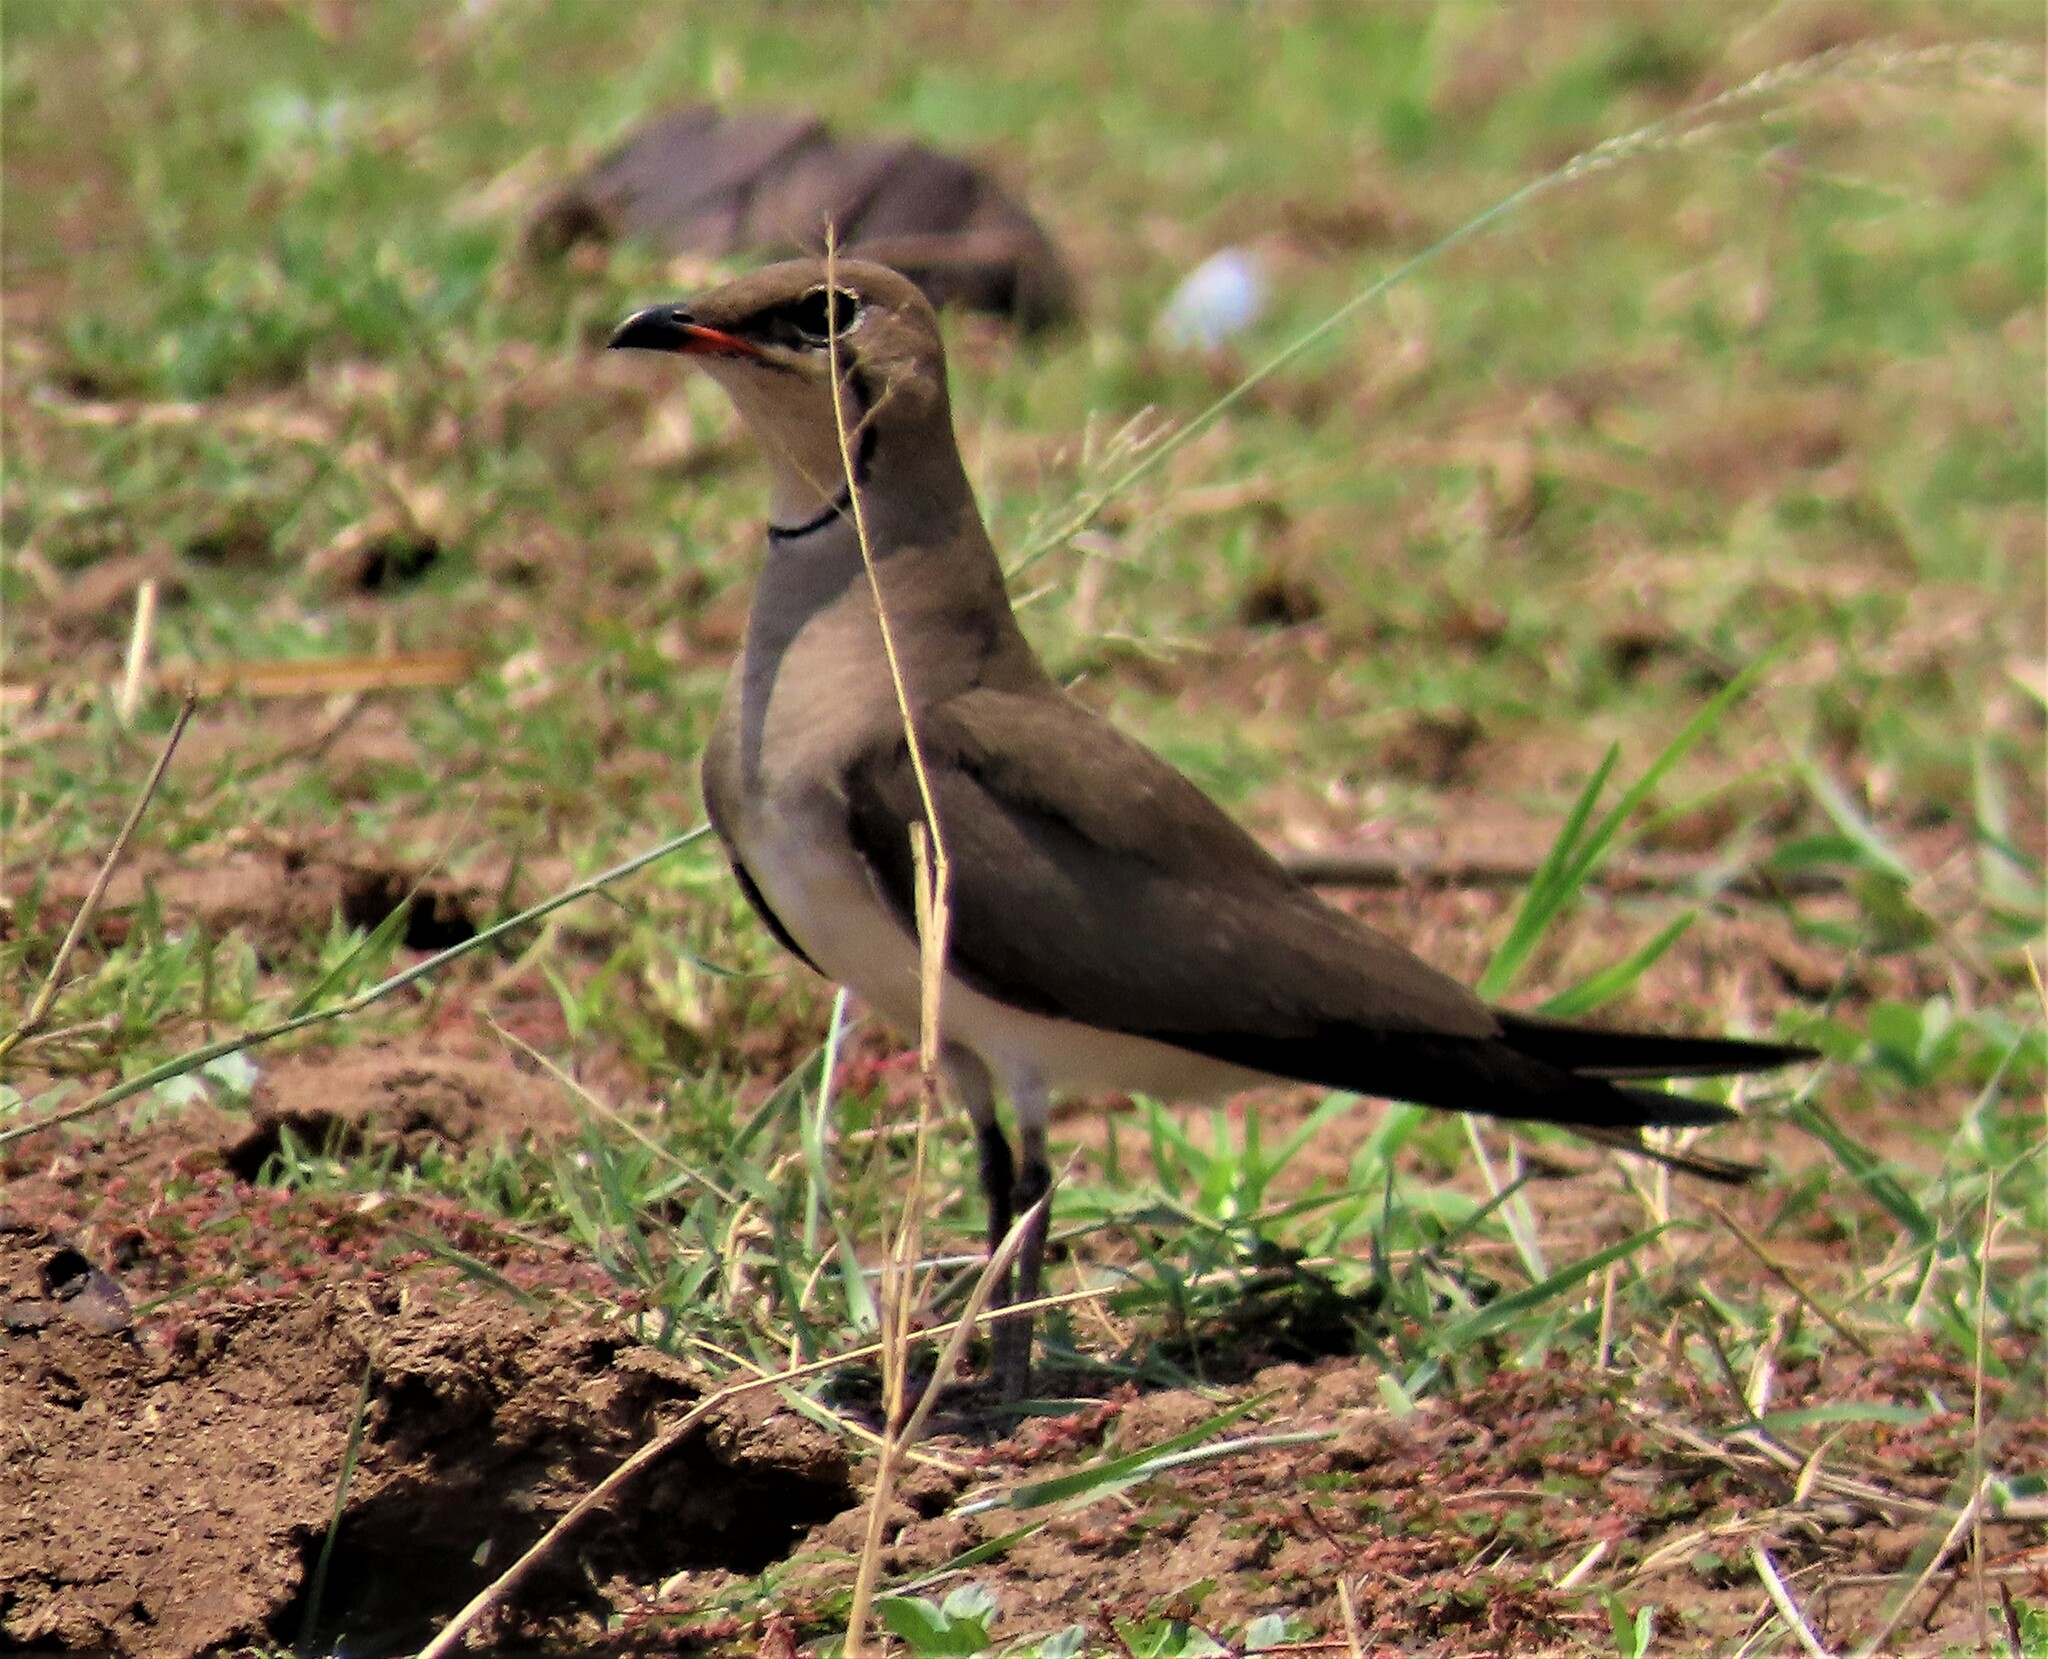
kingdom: Animalia
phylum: Chordata
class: Aves
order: Charadriiformes
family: Glareolidae
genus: Glareola
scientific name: Glareola pratincola
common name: Collared pratincole
